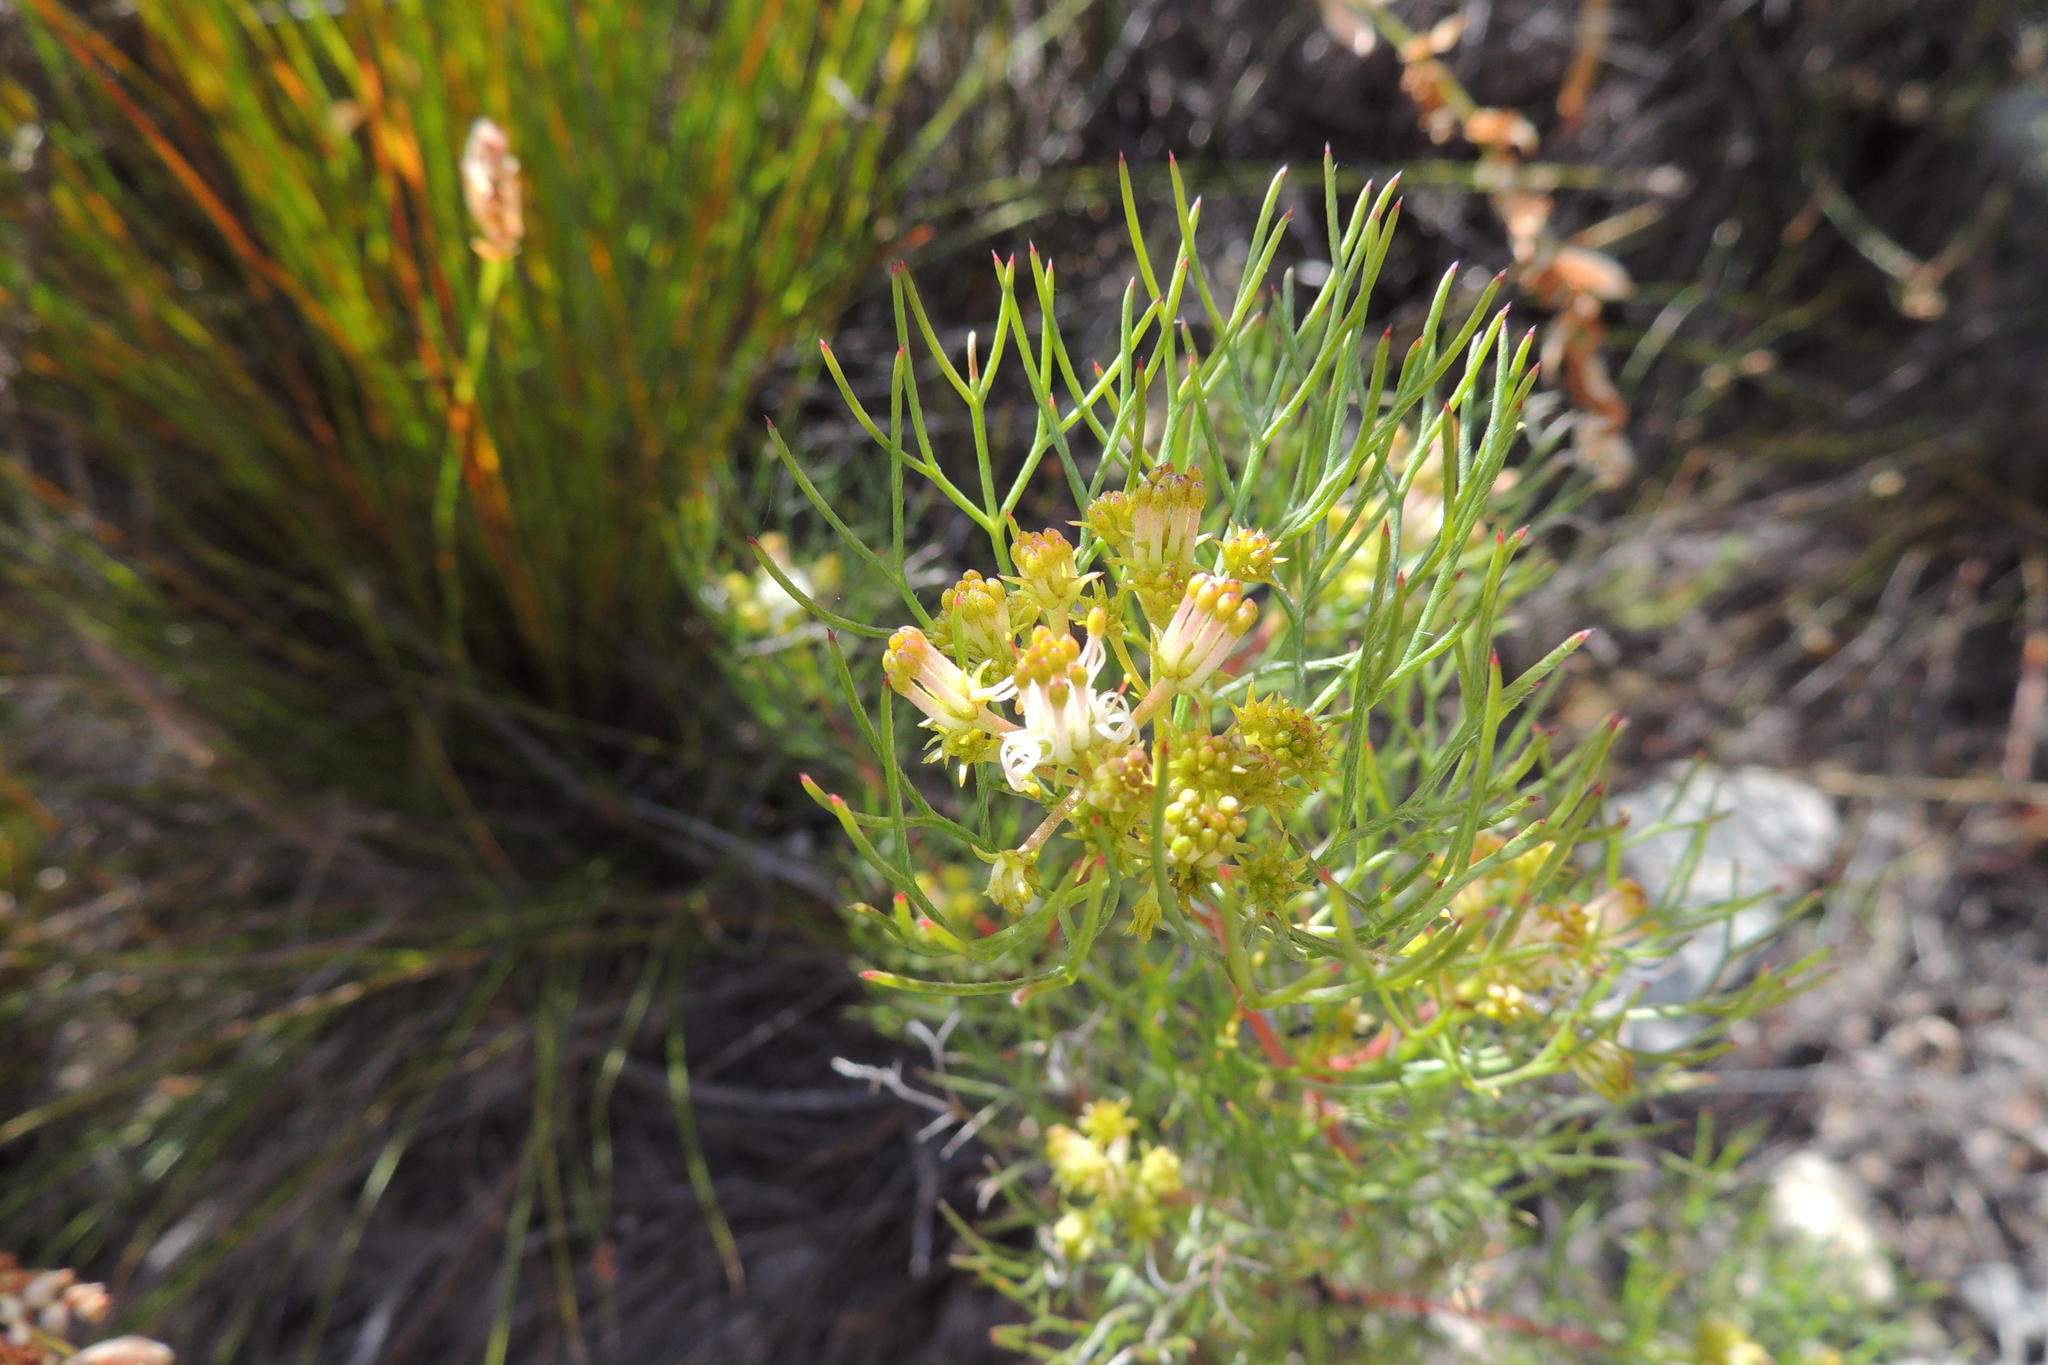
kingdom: Plantae
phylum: Tracheophyta
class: Magnoliopsida
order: Proteales
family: Proteaceae
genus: Serruria
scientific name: Serruria fasciflora
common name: Common pin spiderhead
